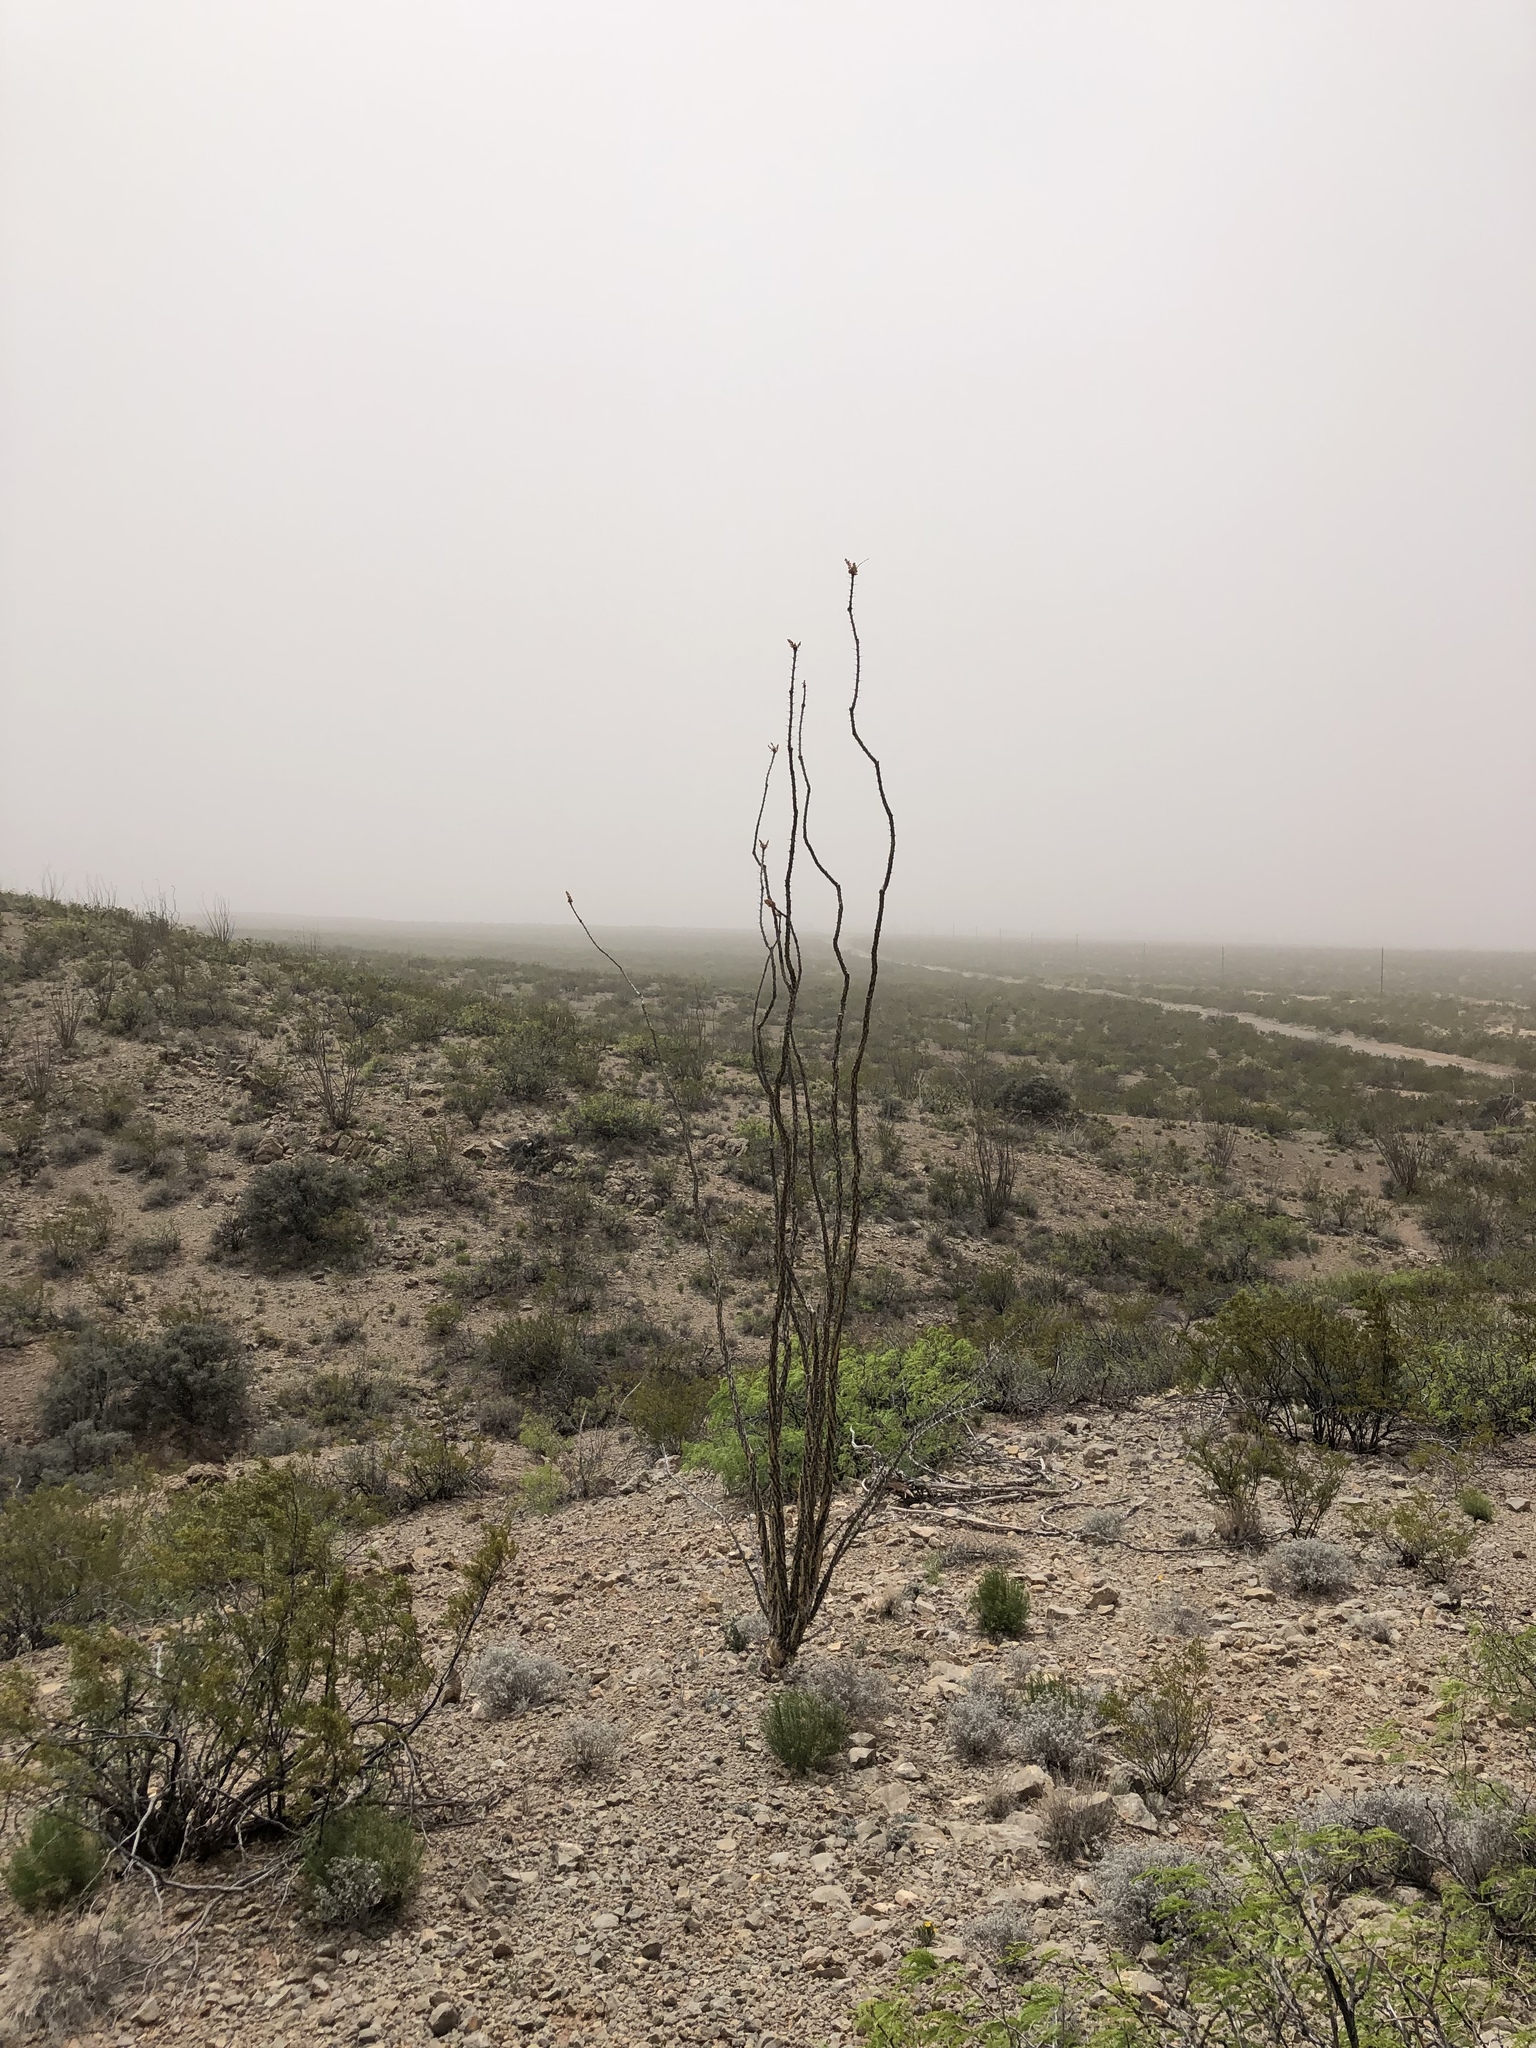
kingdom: Plantae
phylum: Tracheophyta
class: Magnoliopsida
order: Ericales
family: Fouquieriaceae
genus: Fouquieria
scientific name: Fouquieria splendens
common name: Vine-cactus
